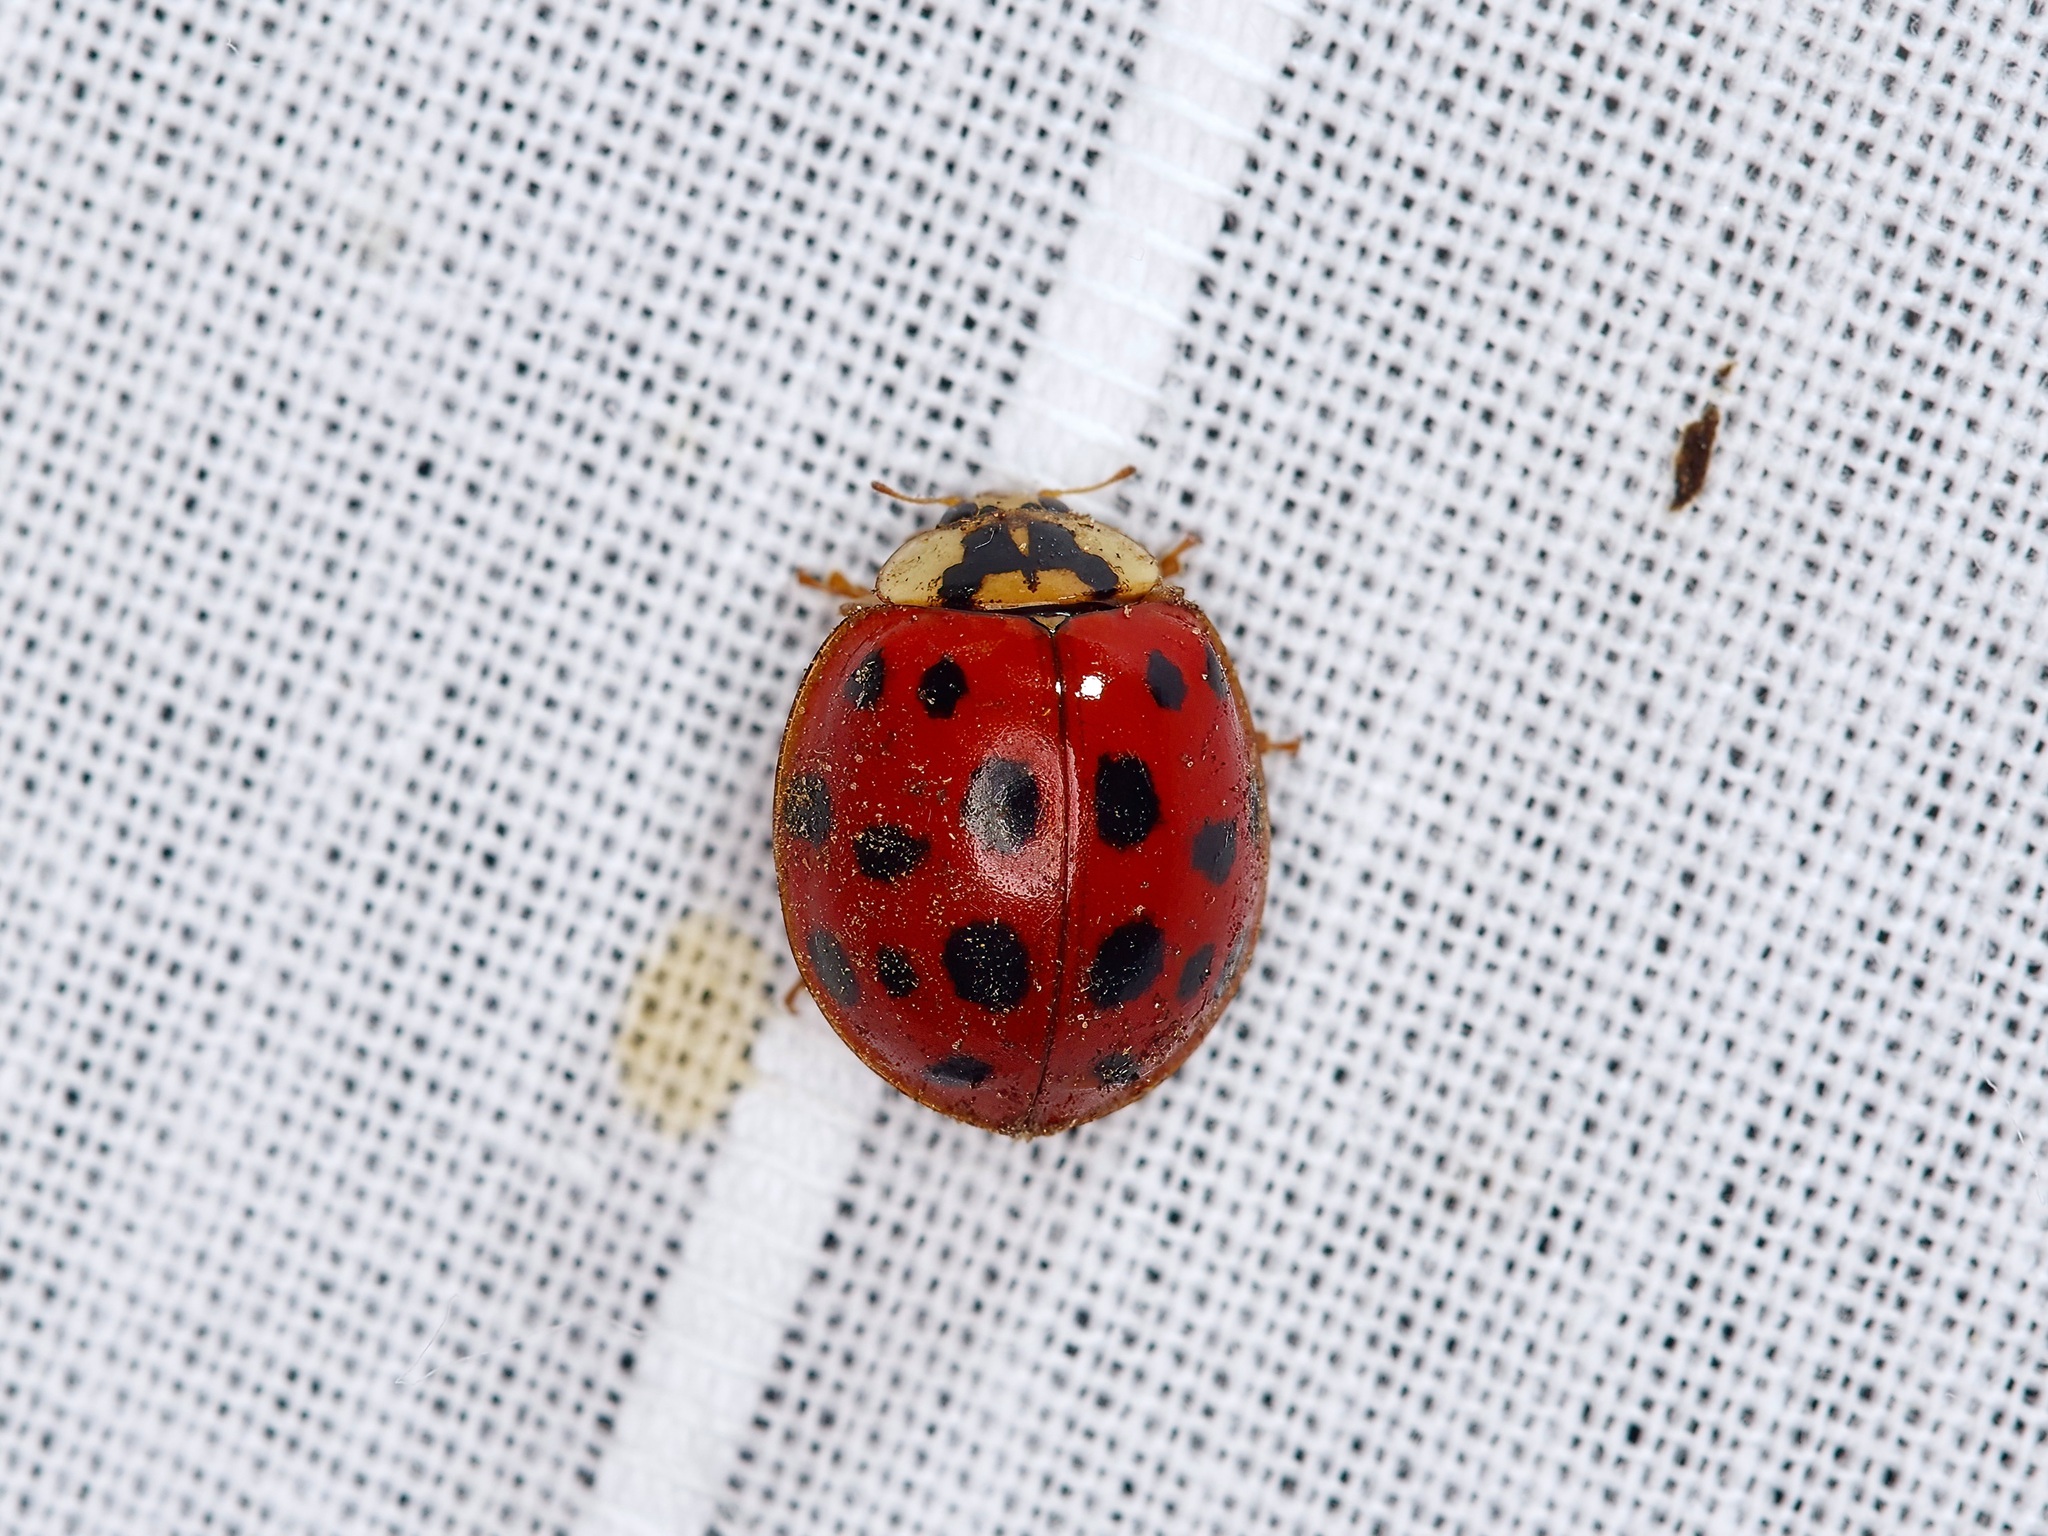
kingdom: Animalia
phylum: Arthropoda
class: Insecta
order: Coleoptera
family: Coccinellidae
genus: Harmonia
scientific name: Harmonia axyridis
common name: Harlequin ladybird
